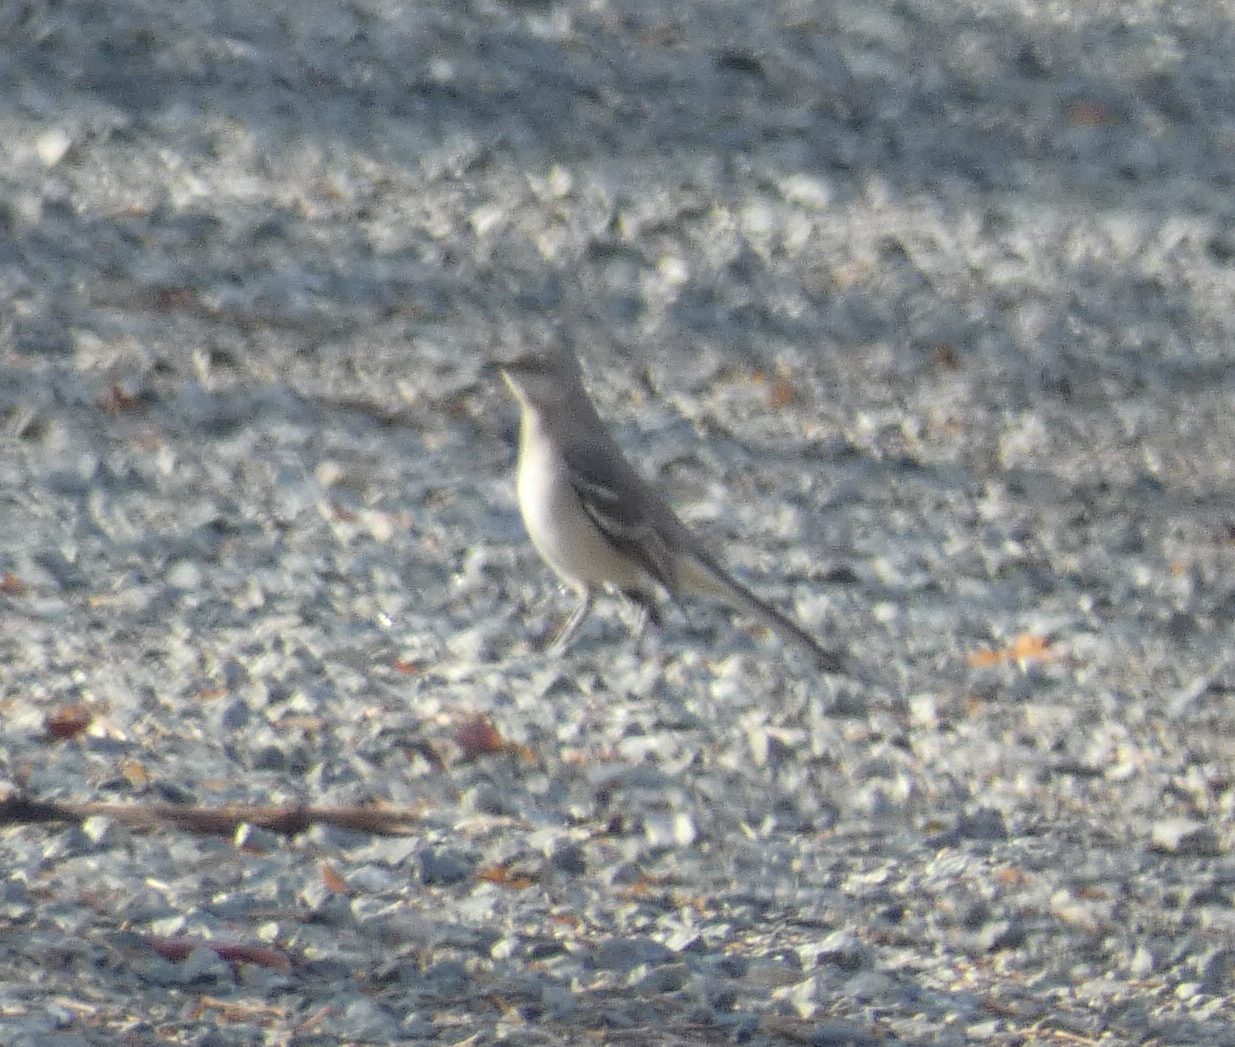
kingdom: Animalia
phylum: Chordata
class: Aves
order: Passeriformes
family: Mimidae
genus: Mimus
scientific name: Mimus polyglottos
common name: Northern mockingbird
